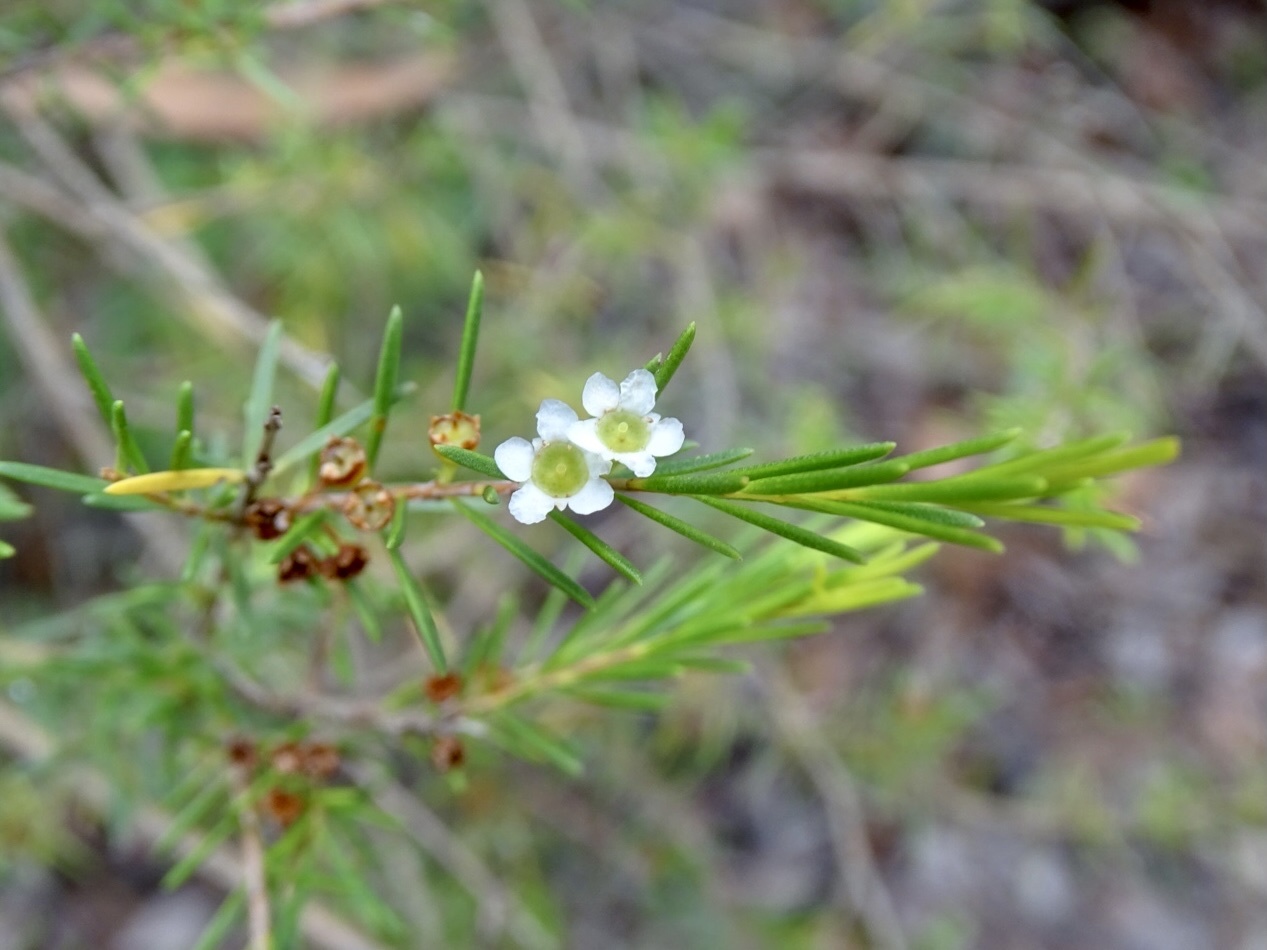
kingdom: Plantae
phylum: Tracheophyta
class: Magnoliopsida
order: Myrtales
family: Myrtaceae
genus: Baeckea
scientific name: Baeckea frutescens
